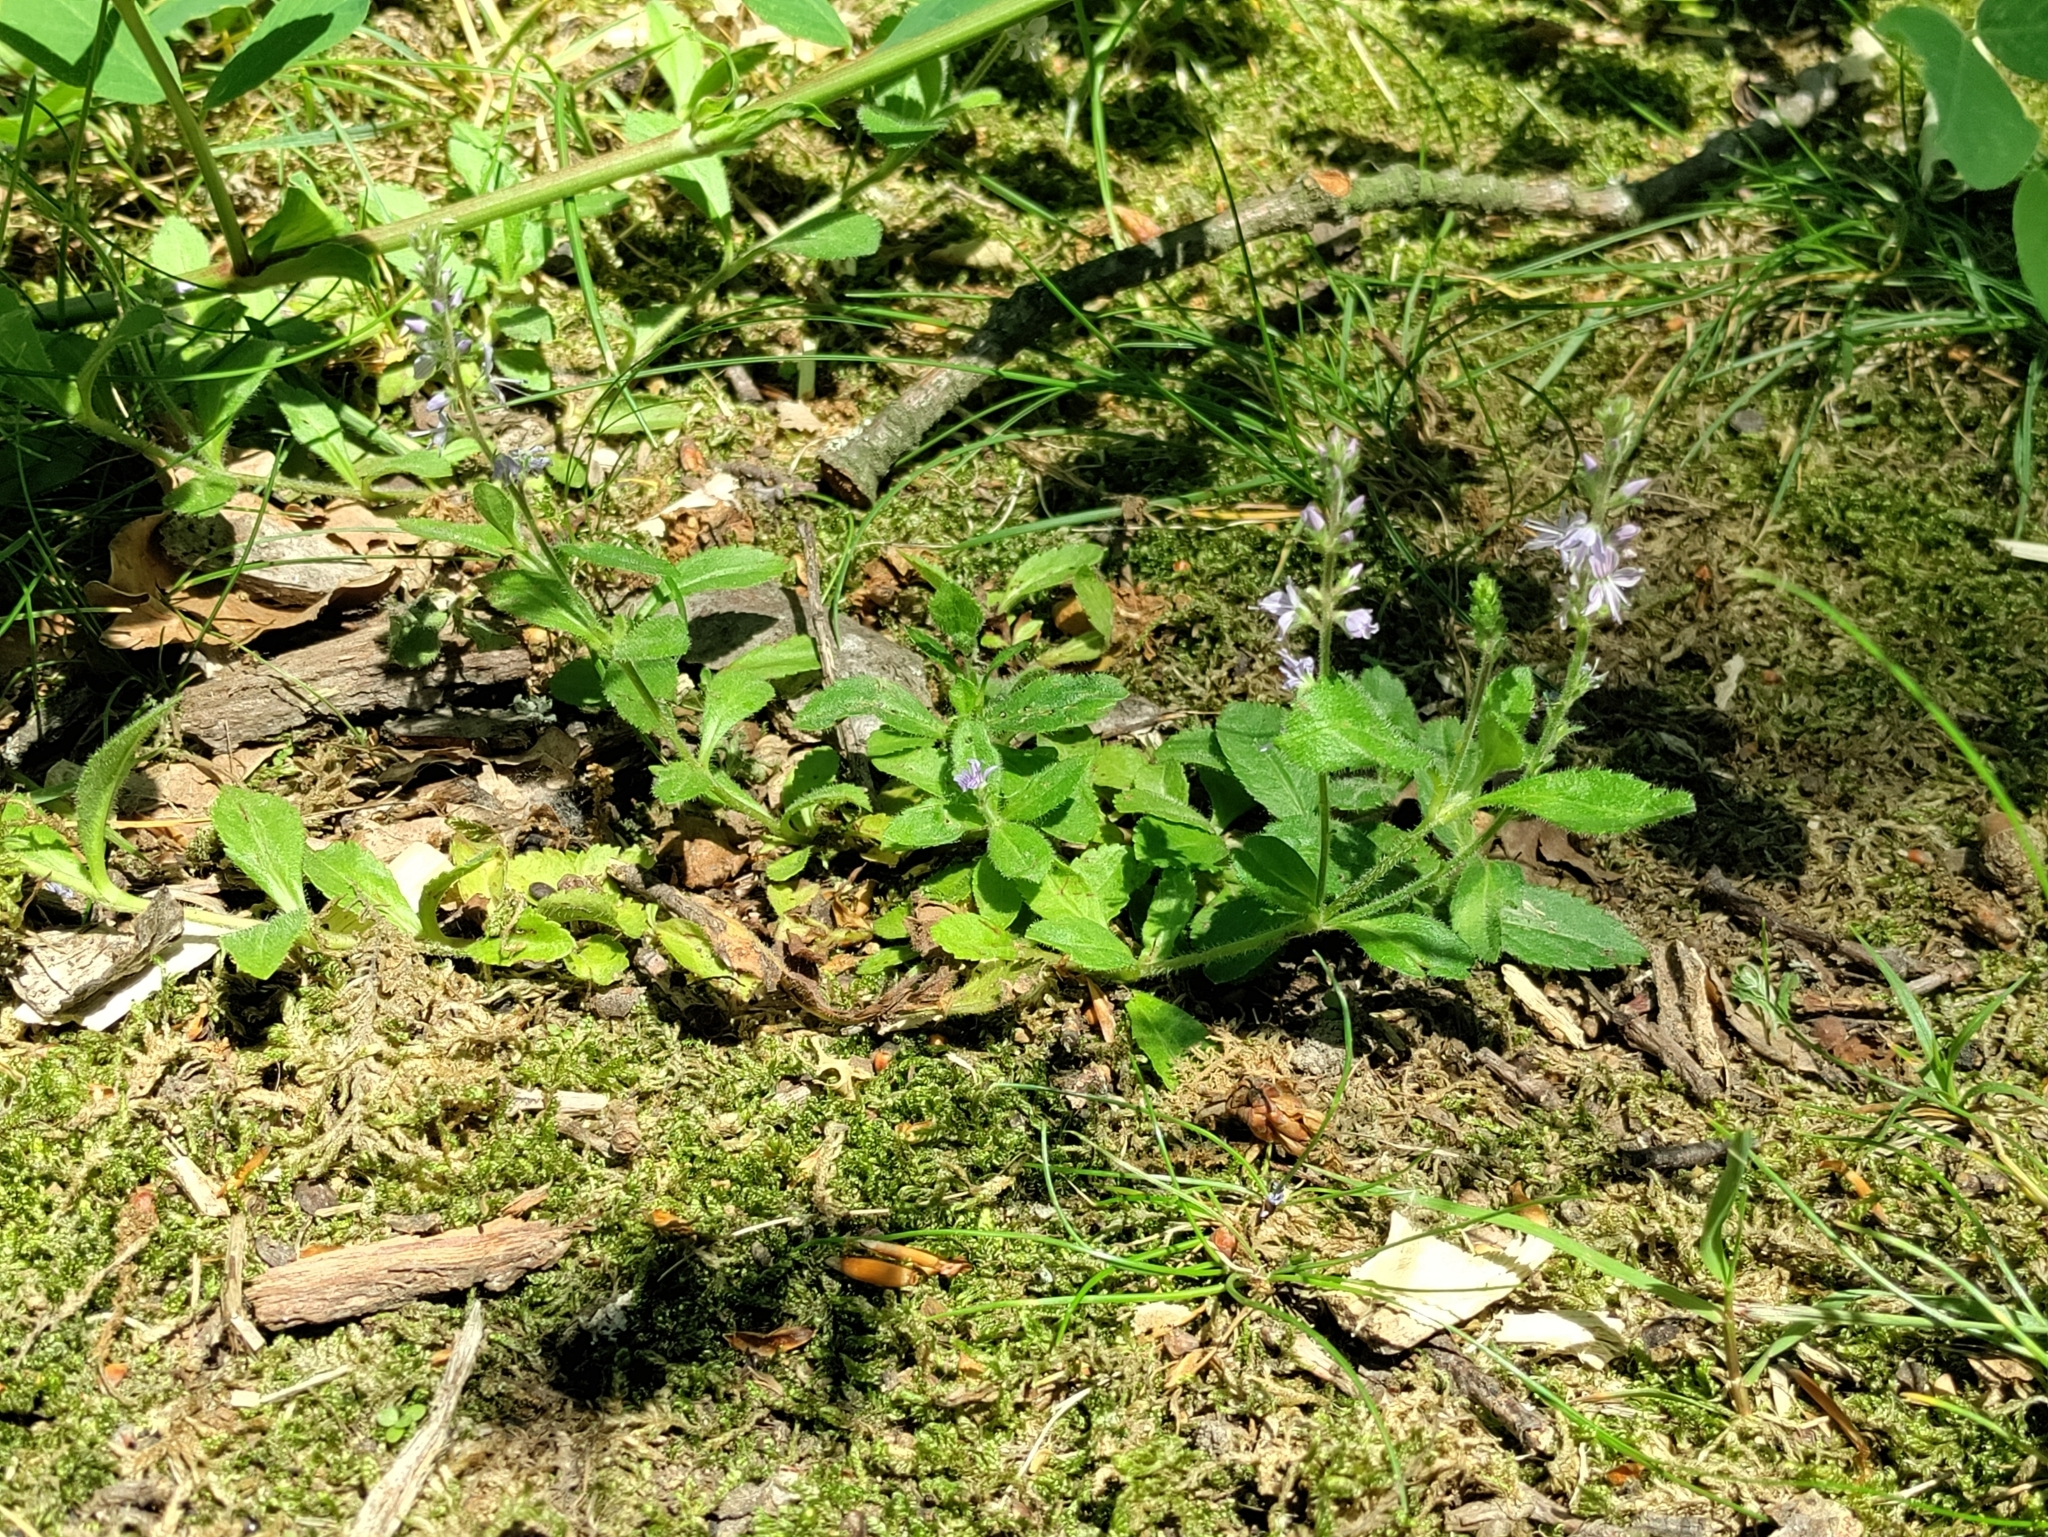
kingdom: Plantae
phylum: Tracheophyta
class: Magnoliopsida
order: Lamiales
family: Plantaginaceae
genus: Veronica
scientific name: Veronica officinalis
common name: Common speedwell
